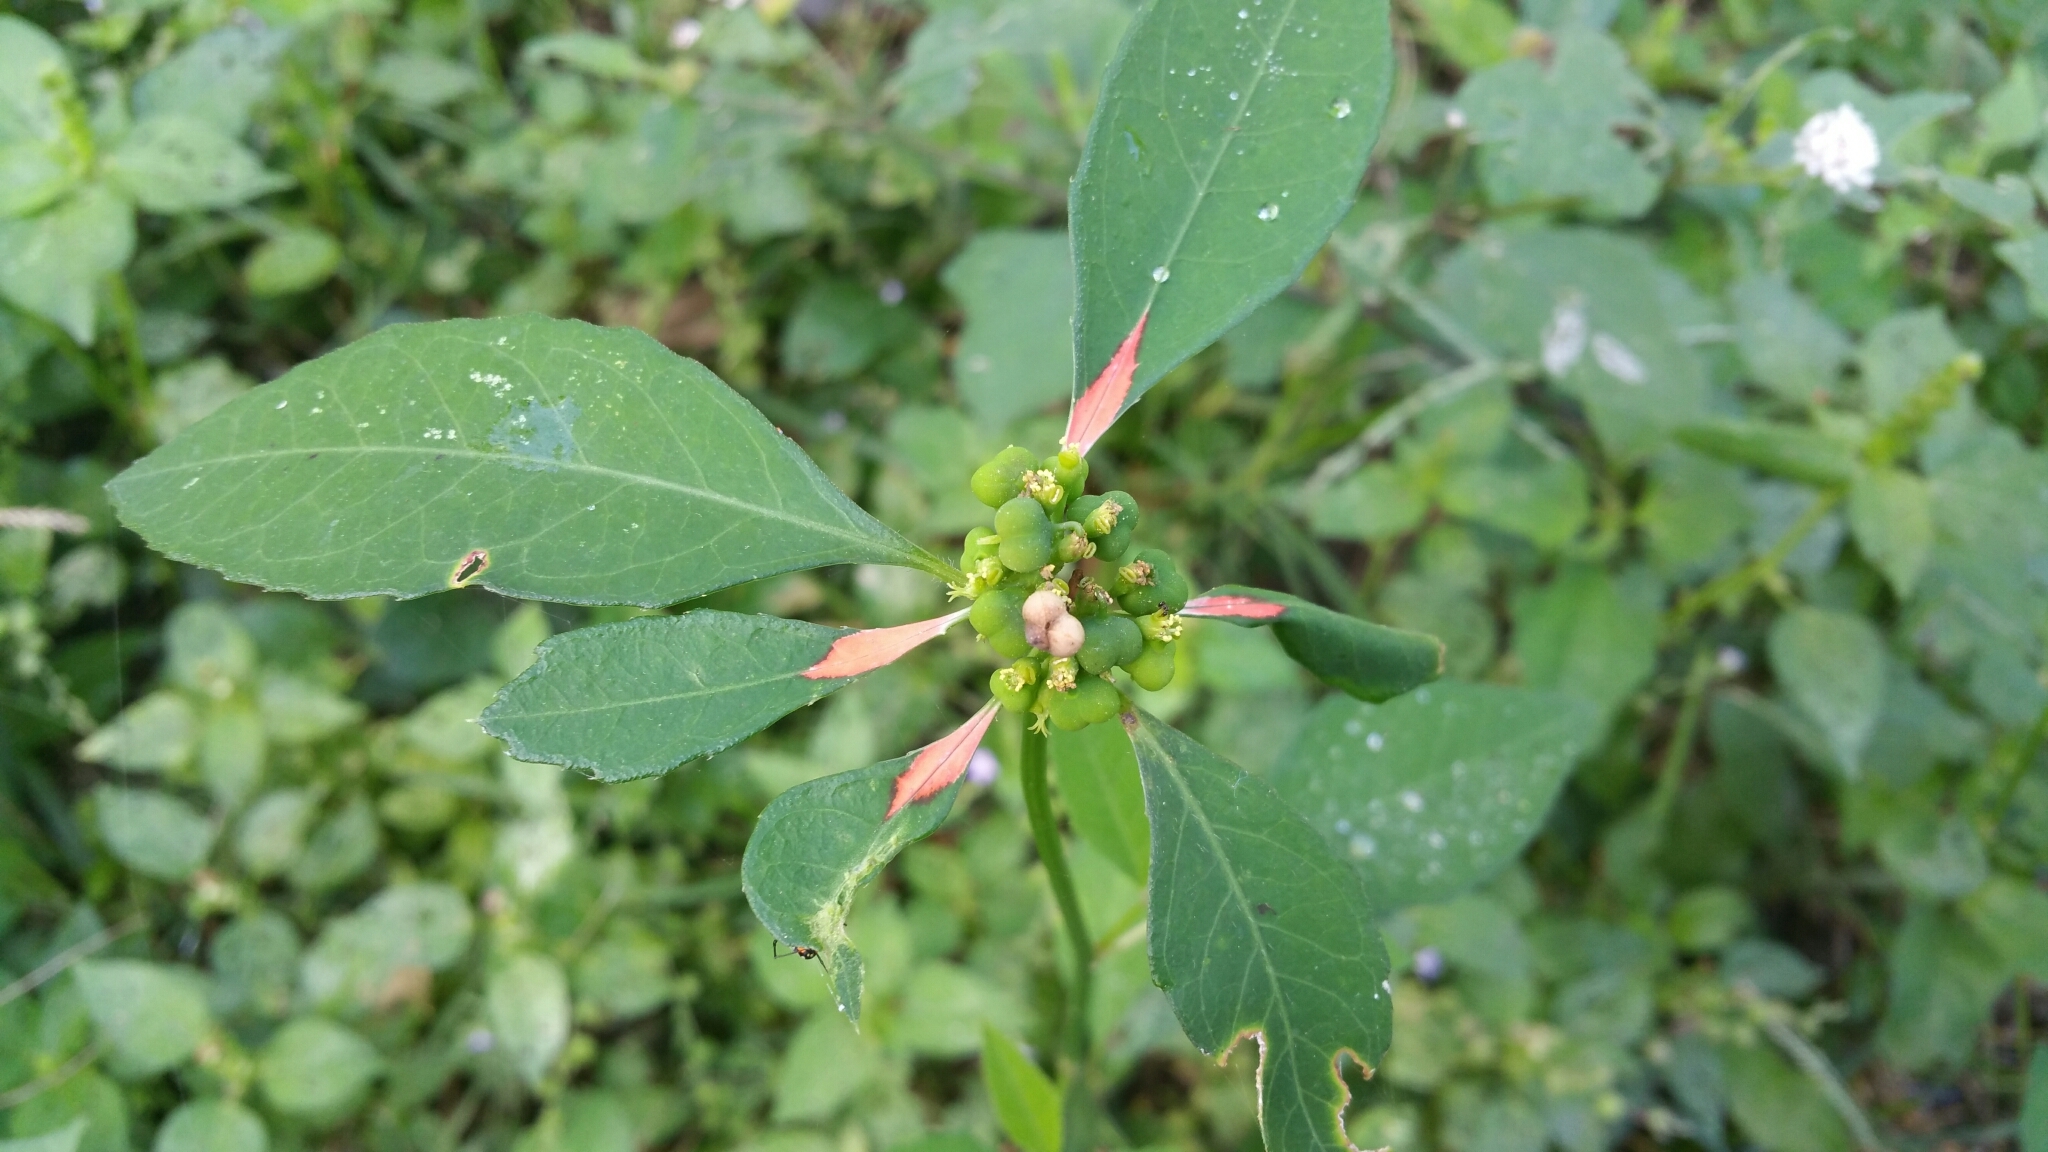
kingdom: Plantae
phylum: Tracheophyta
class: Magnoliopsida
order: Malpighiales
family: Euphorbiaceae
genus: Euphorbia
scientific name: Euphorbia heterophylla
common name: Mexican fireplant
